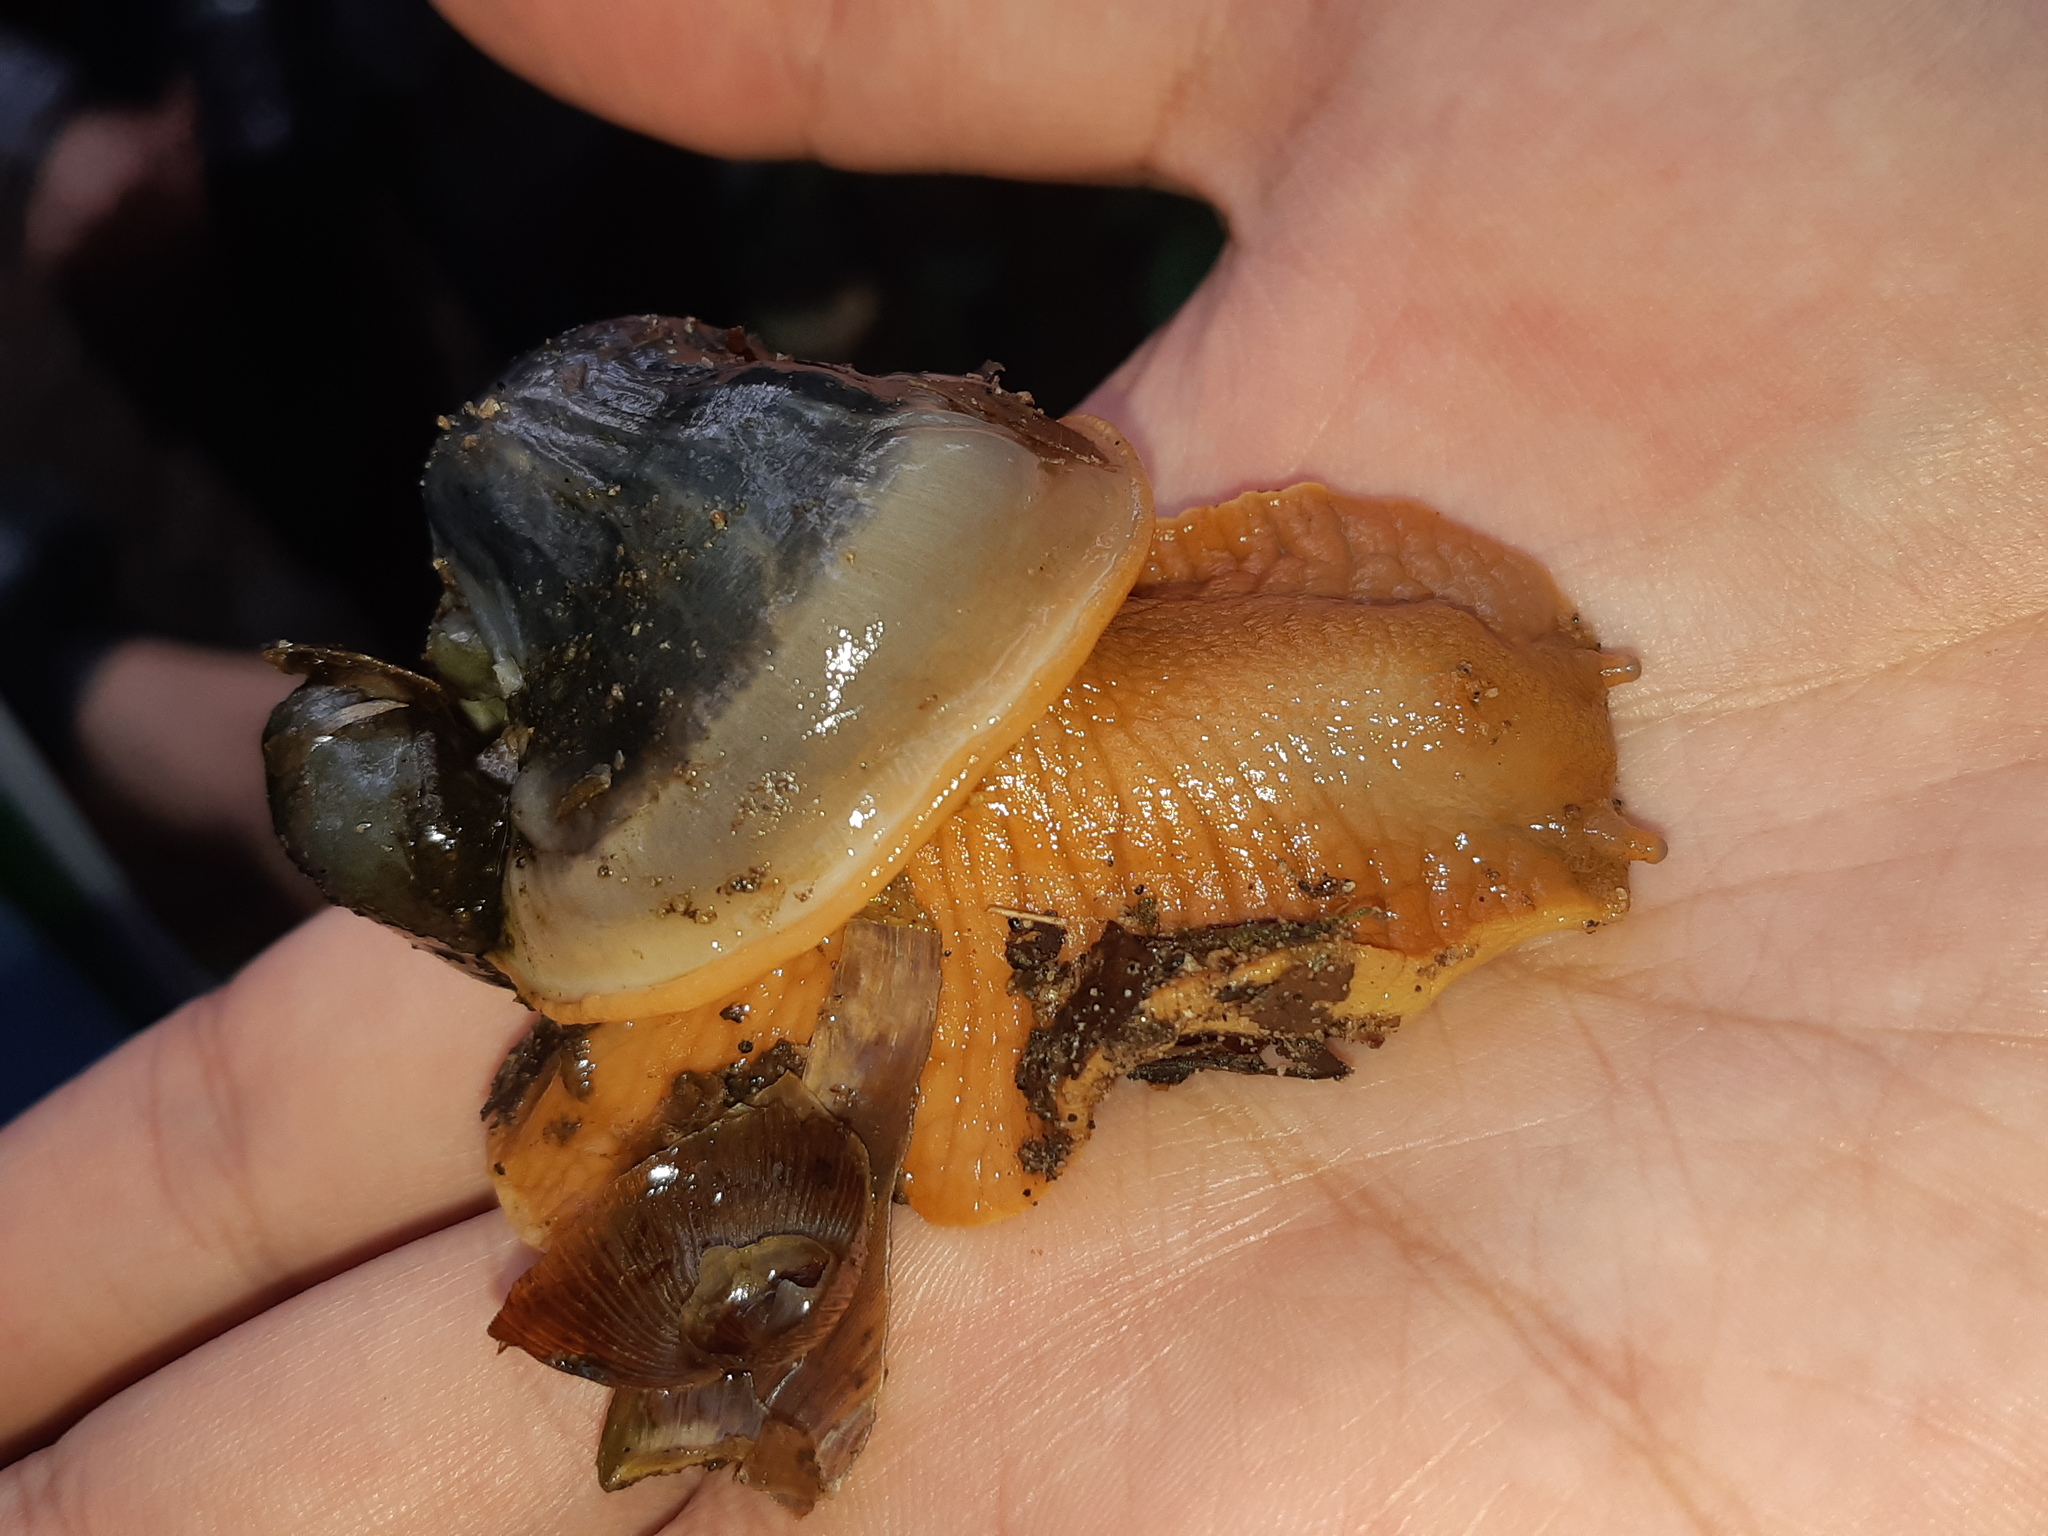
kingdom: Animalia
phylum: Mollusca
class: Gastropoda
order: Stylommatophora
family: Strophocheilidae
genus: Megalobulimus
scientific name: Megalobulimus popelairianus
